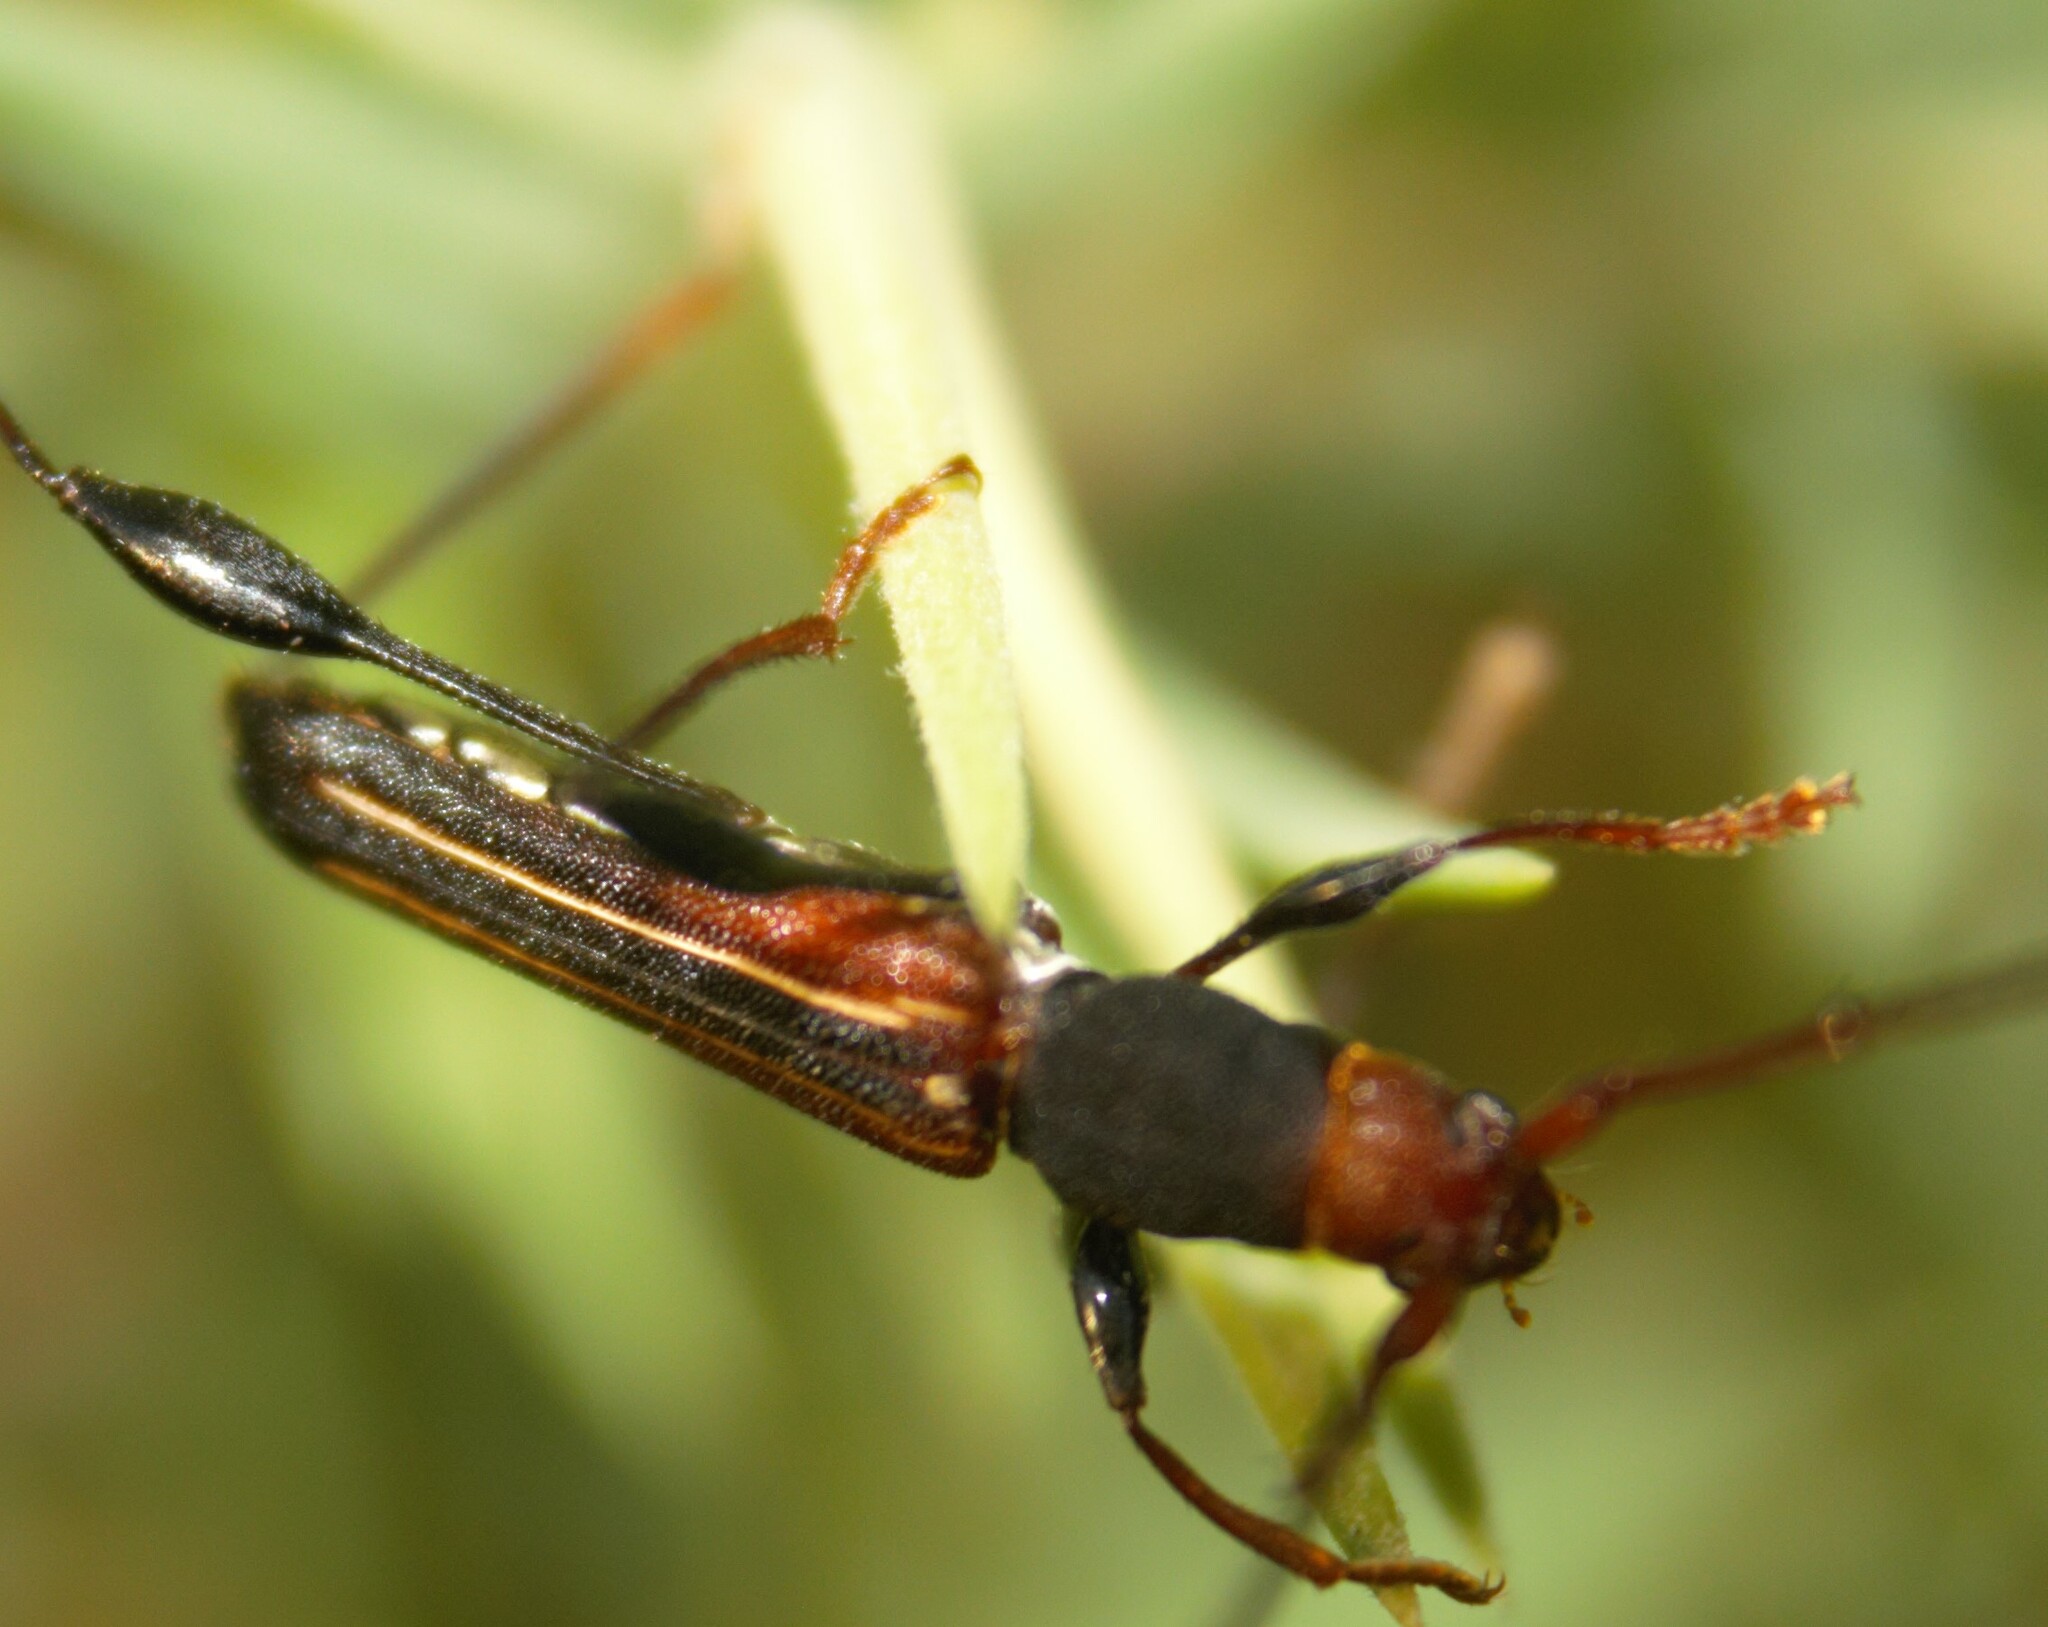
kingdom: Animalia
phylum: Arthropoda
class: Insecta
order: Coleoptera
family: Cerambycidae
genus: Amphirhoe
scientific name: Amphirhoe sloanei
